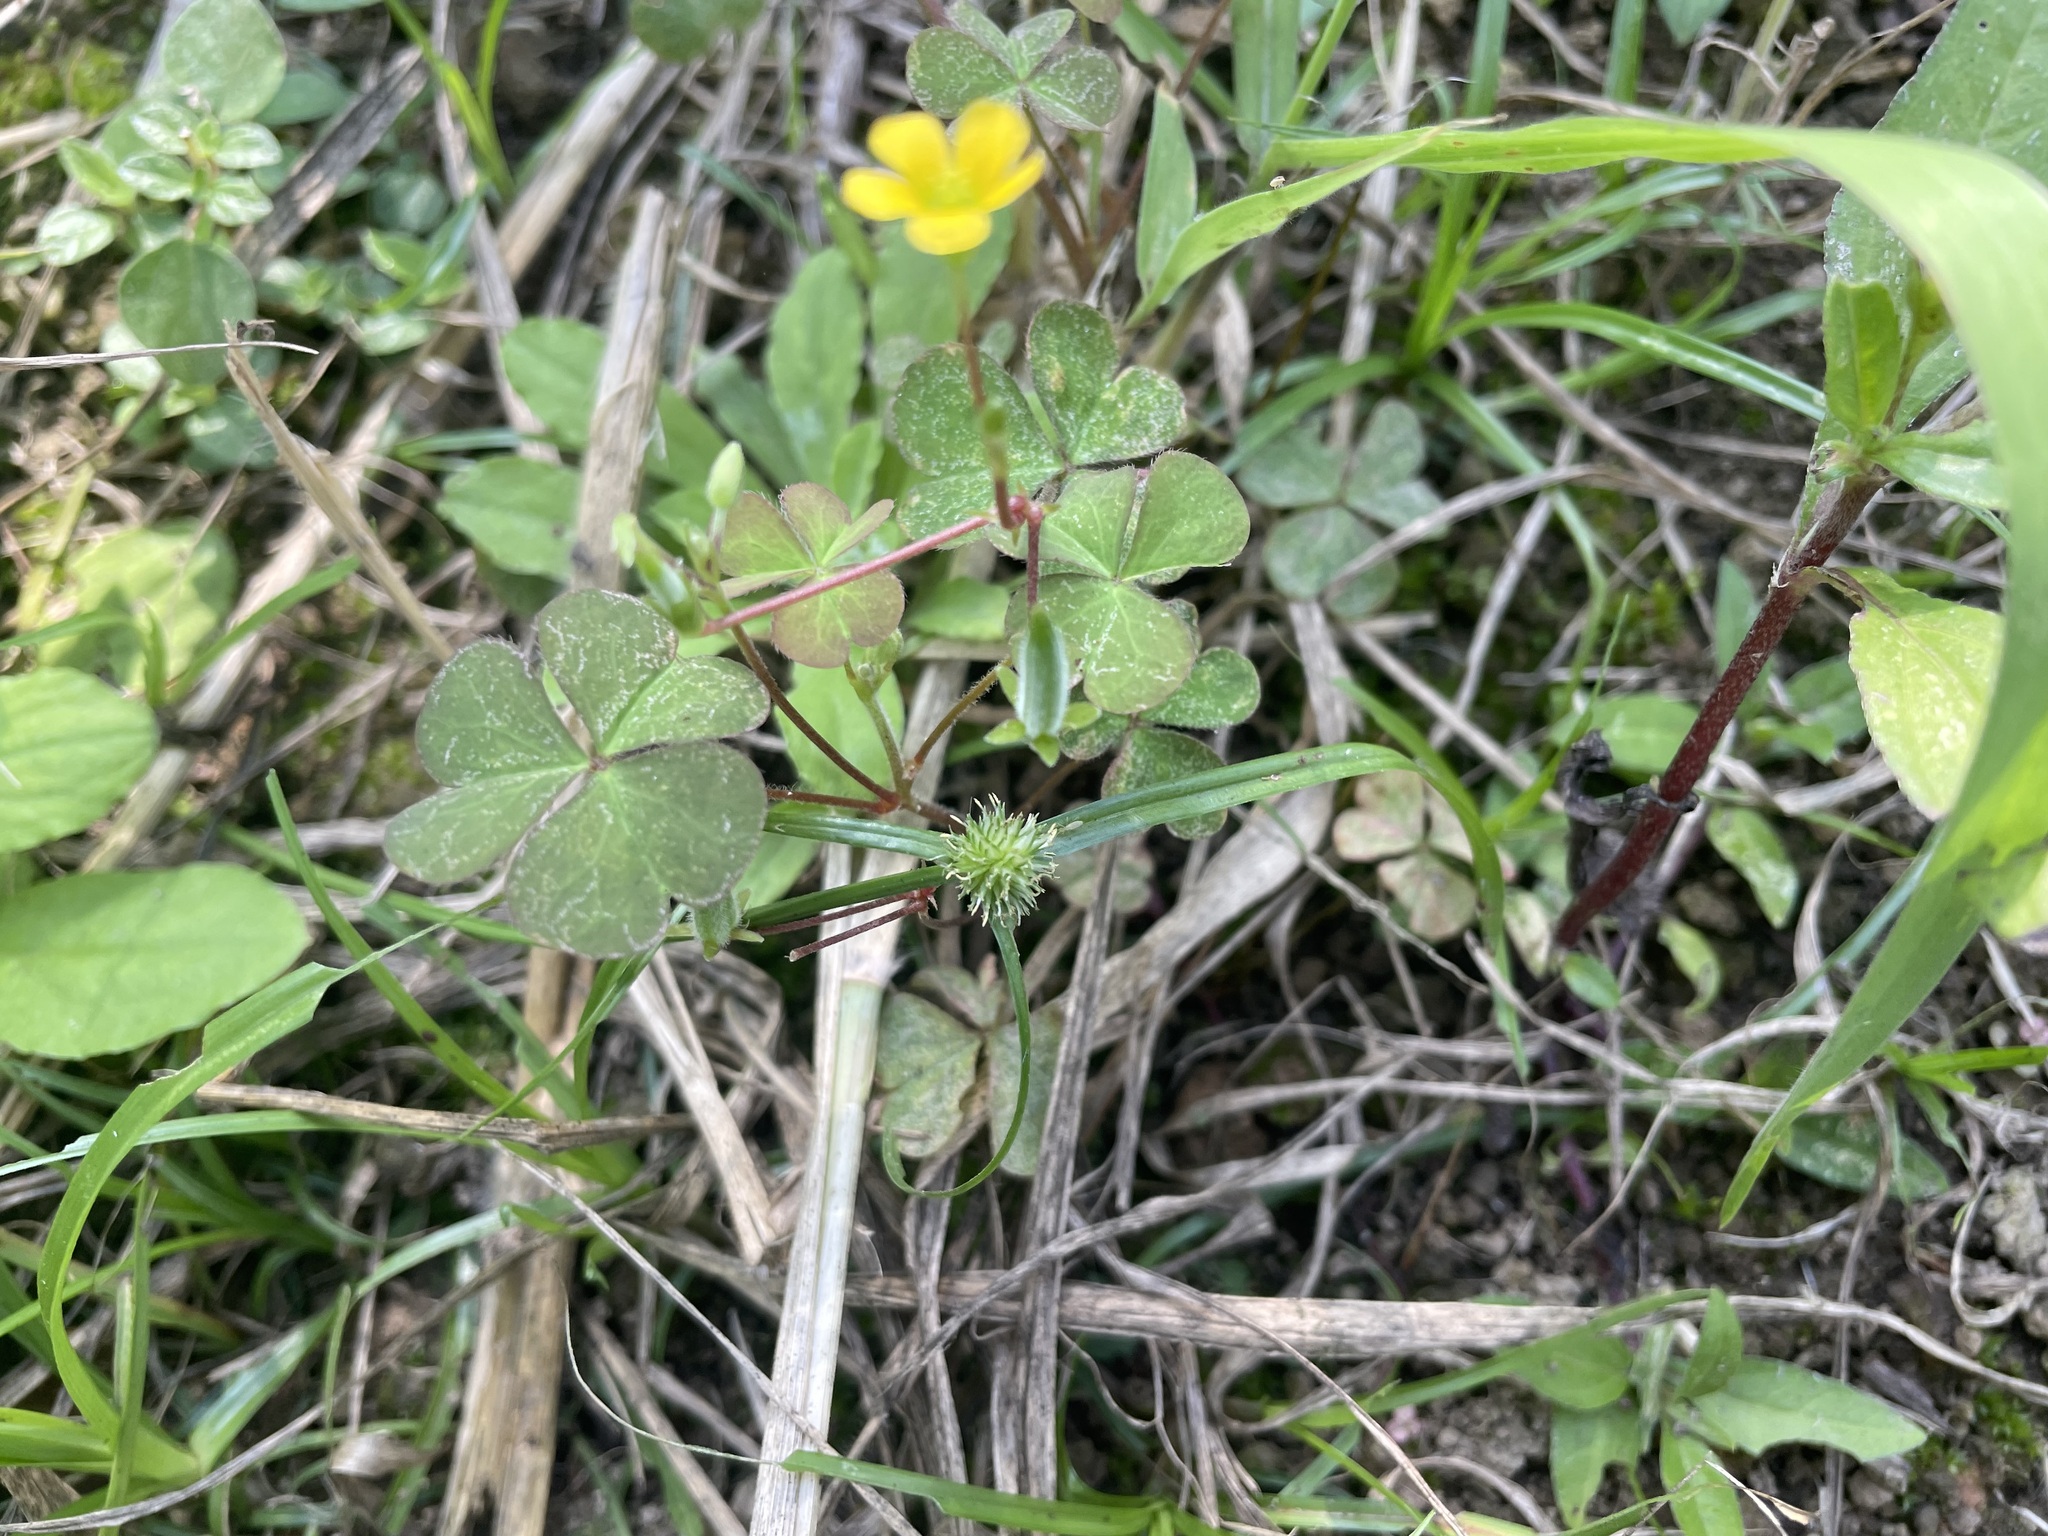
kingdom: Plantae
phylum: Tracheophyta
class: Liliopsida
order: Poales
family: Cyperaceae
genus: Cyperus
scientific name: Cyperus brevifolius
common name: Globe kyllinga
